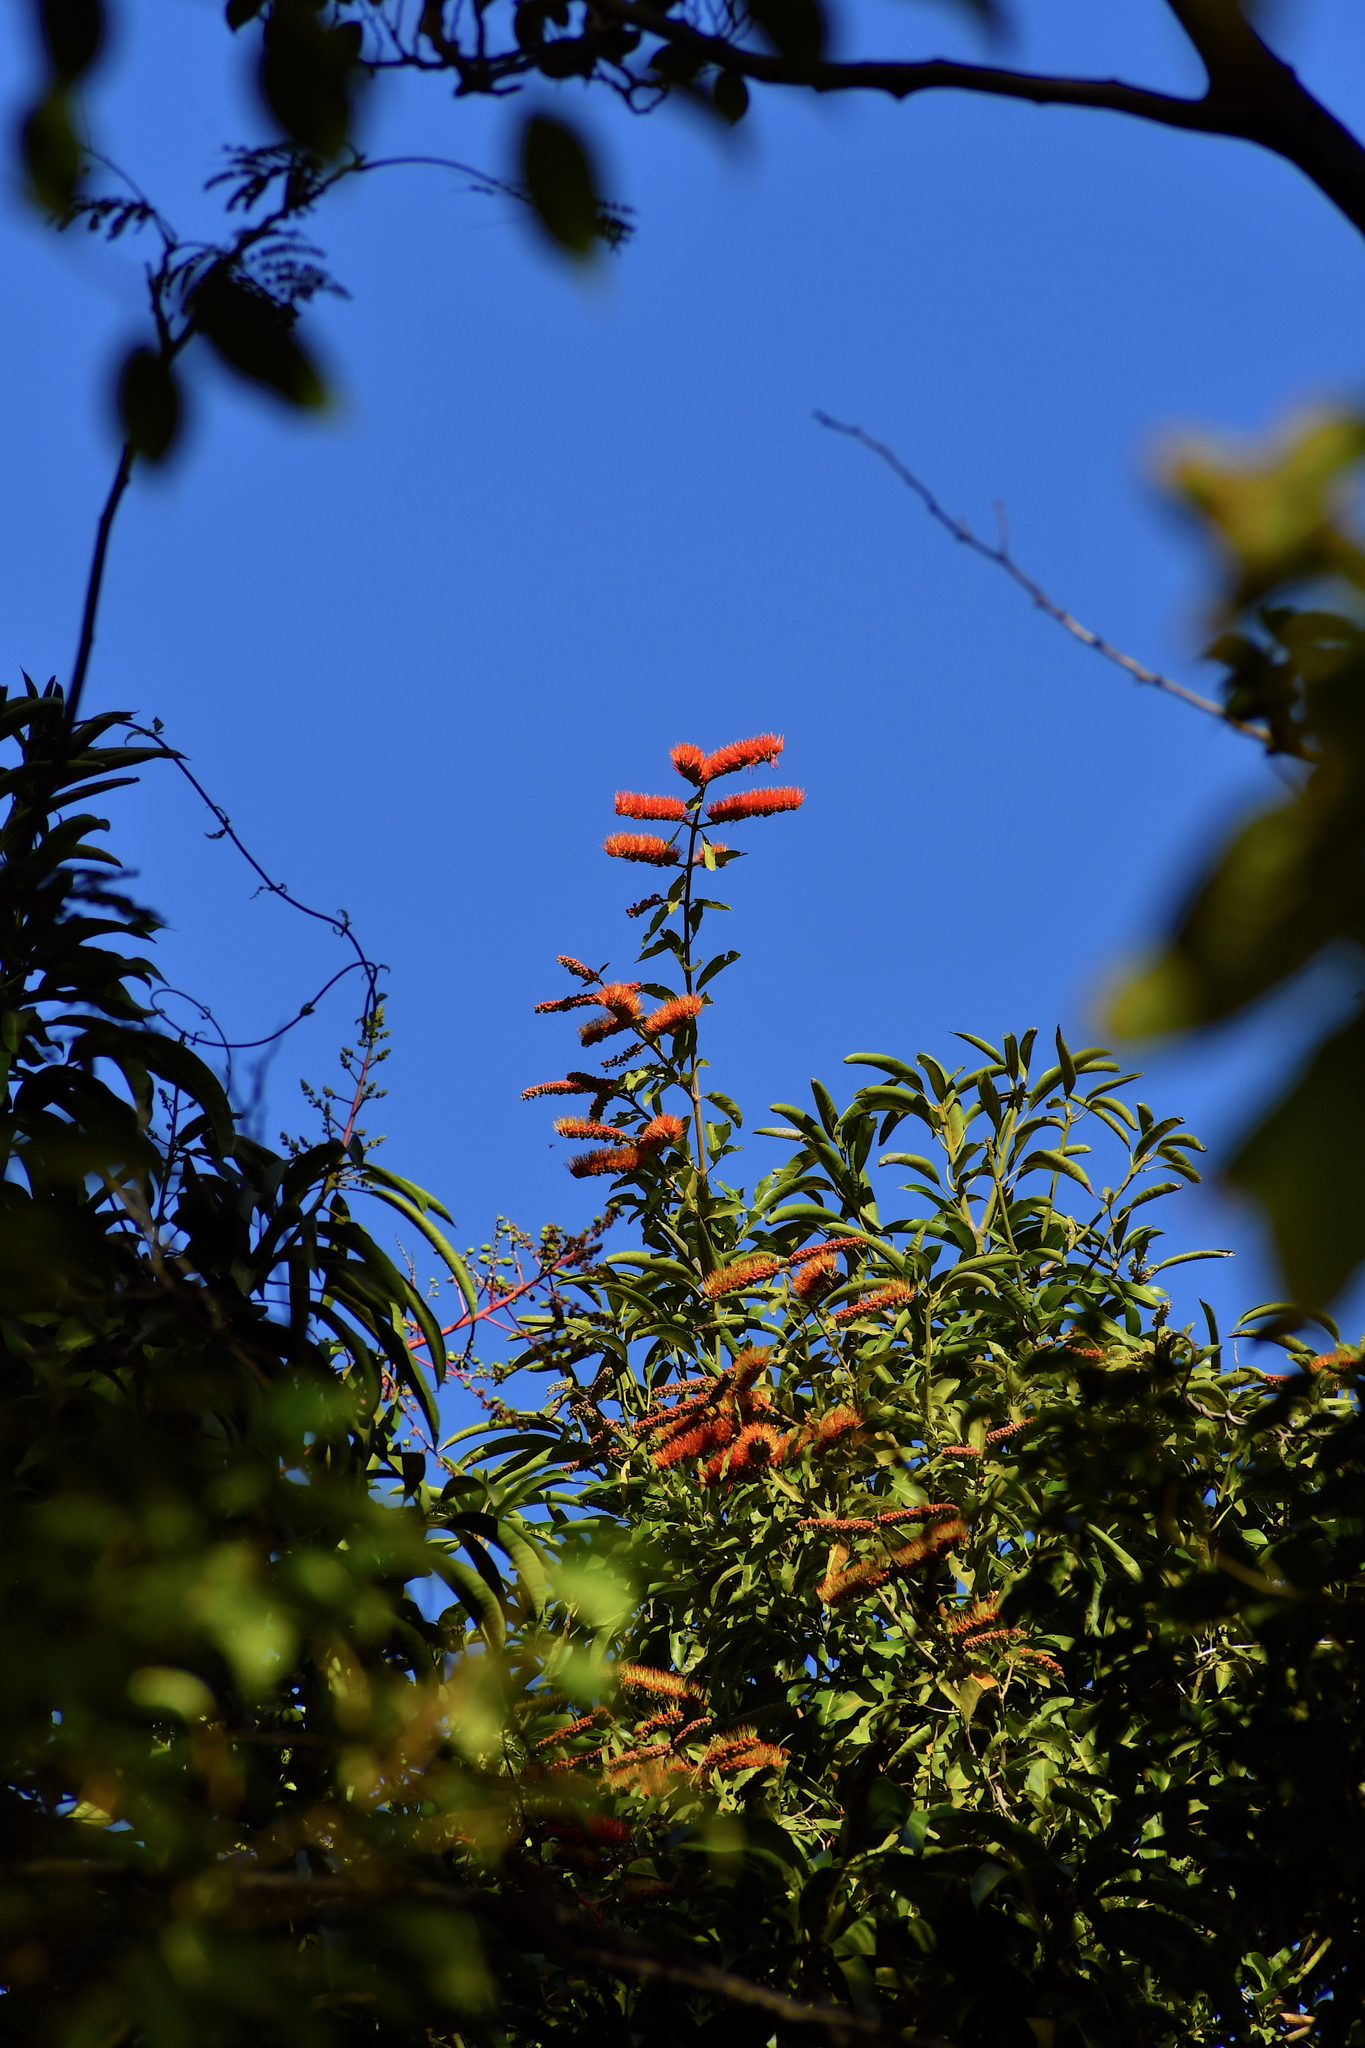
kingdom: Plantae
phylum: Tracheophyta
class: Magnoliopsida
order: Myrtales
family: Combretaceae
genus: Combretum
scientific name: Combretum fruticosum
